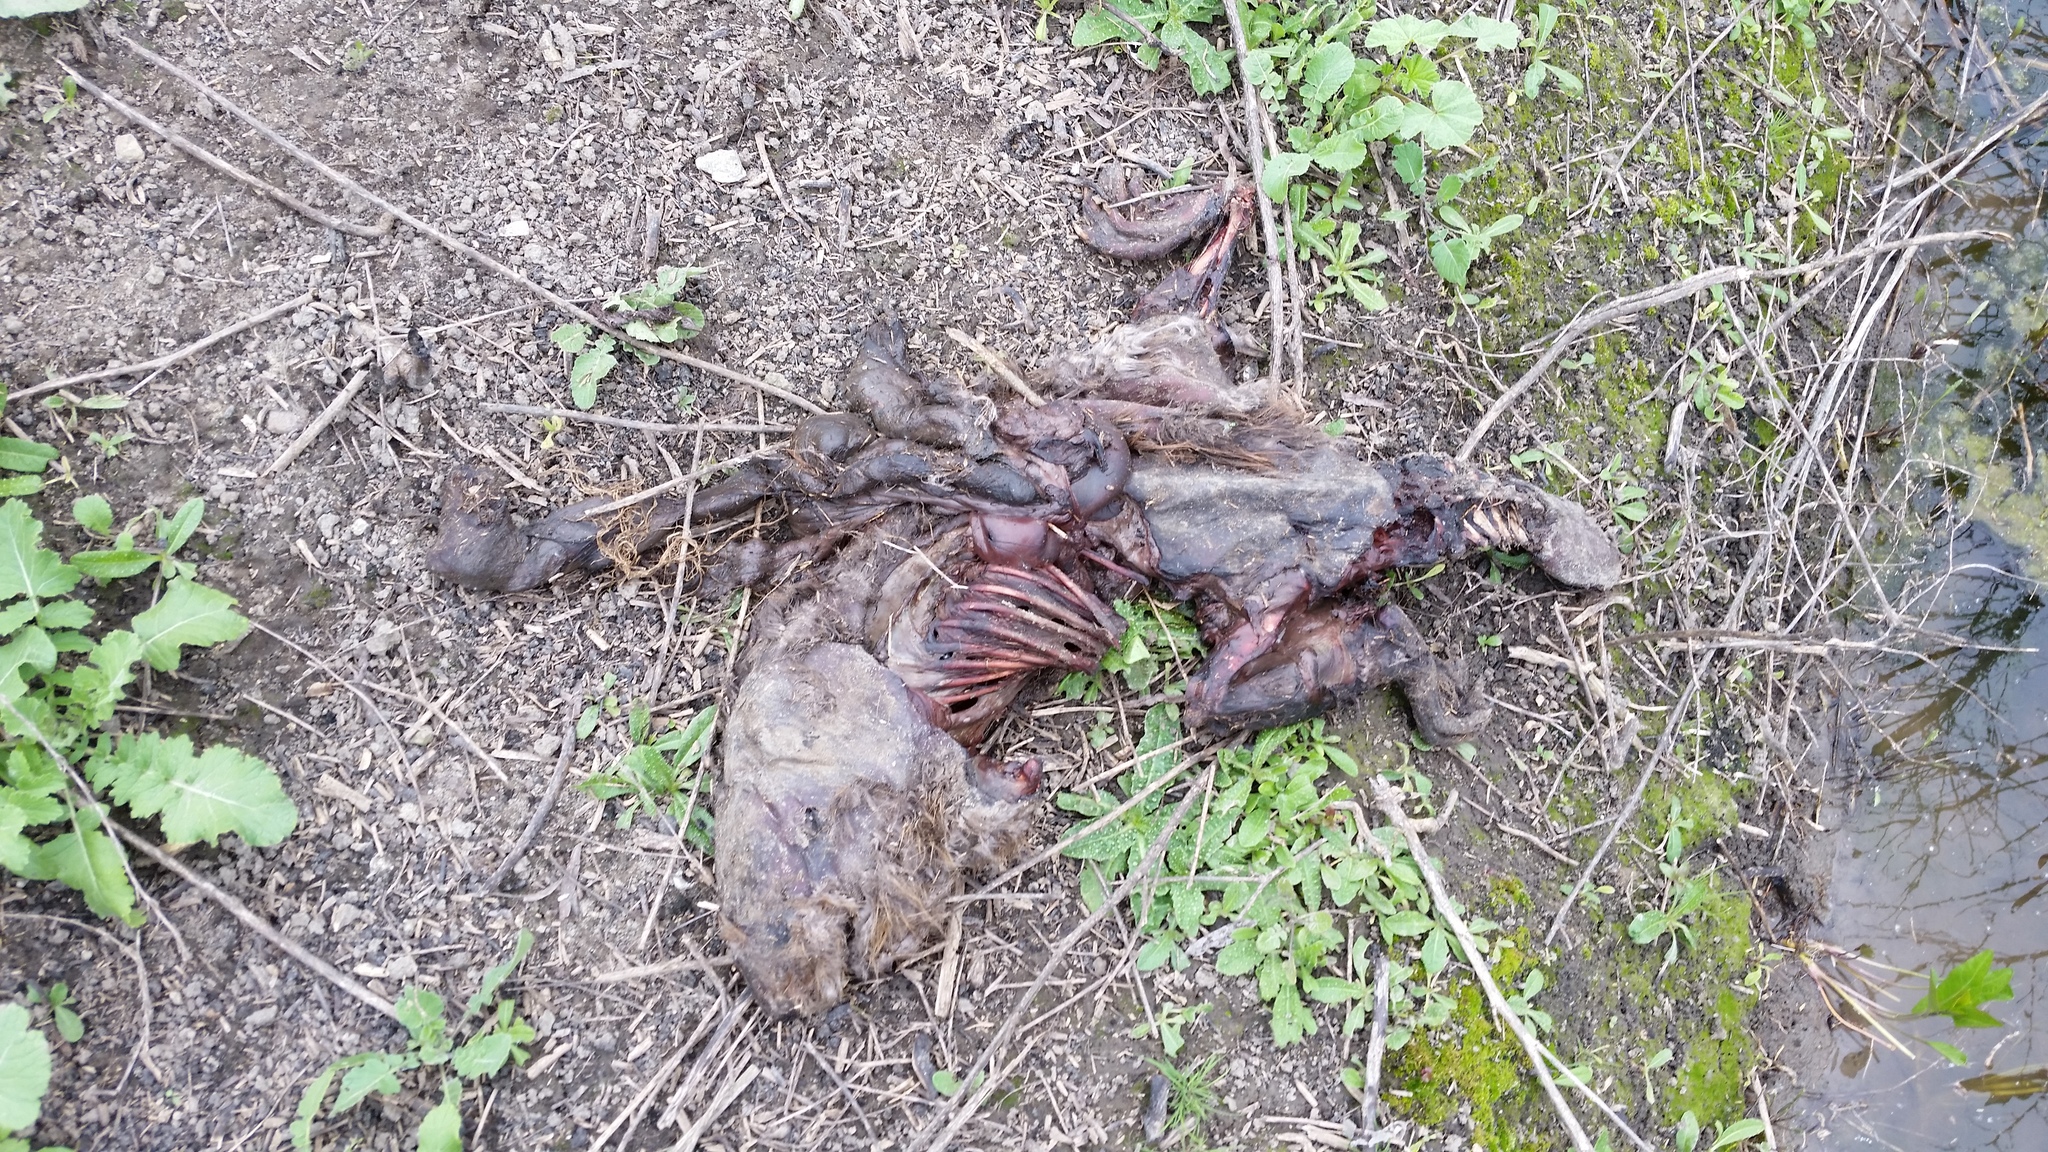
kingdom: Animalia
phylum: Chordata
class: Mammalia
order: Rodentia
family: Castoridae
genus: Castor
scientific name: Castor canadensis
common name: American beaver
